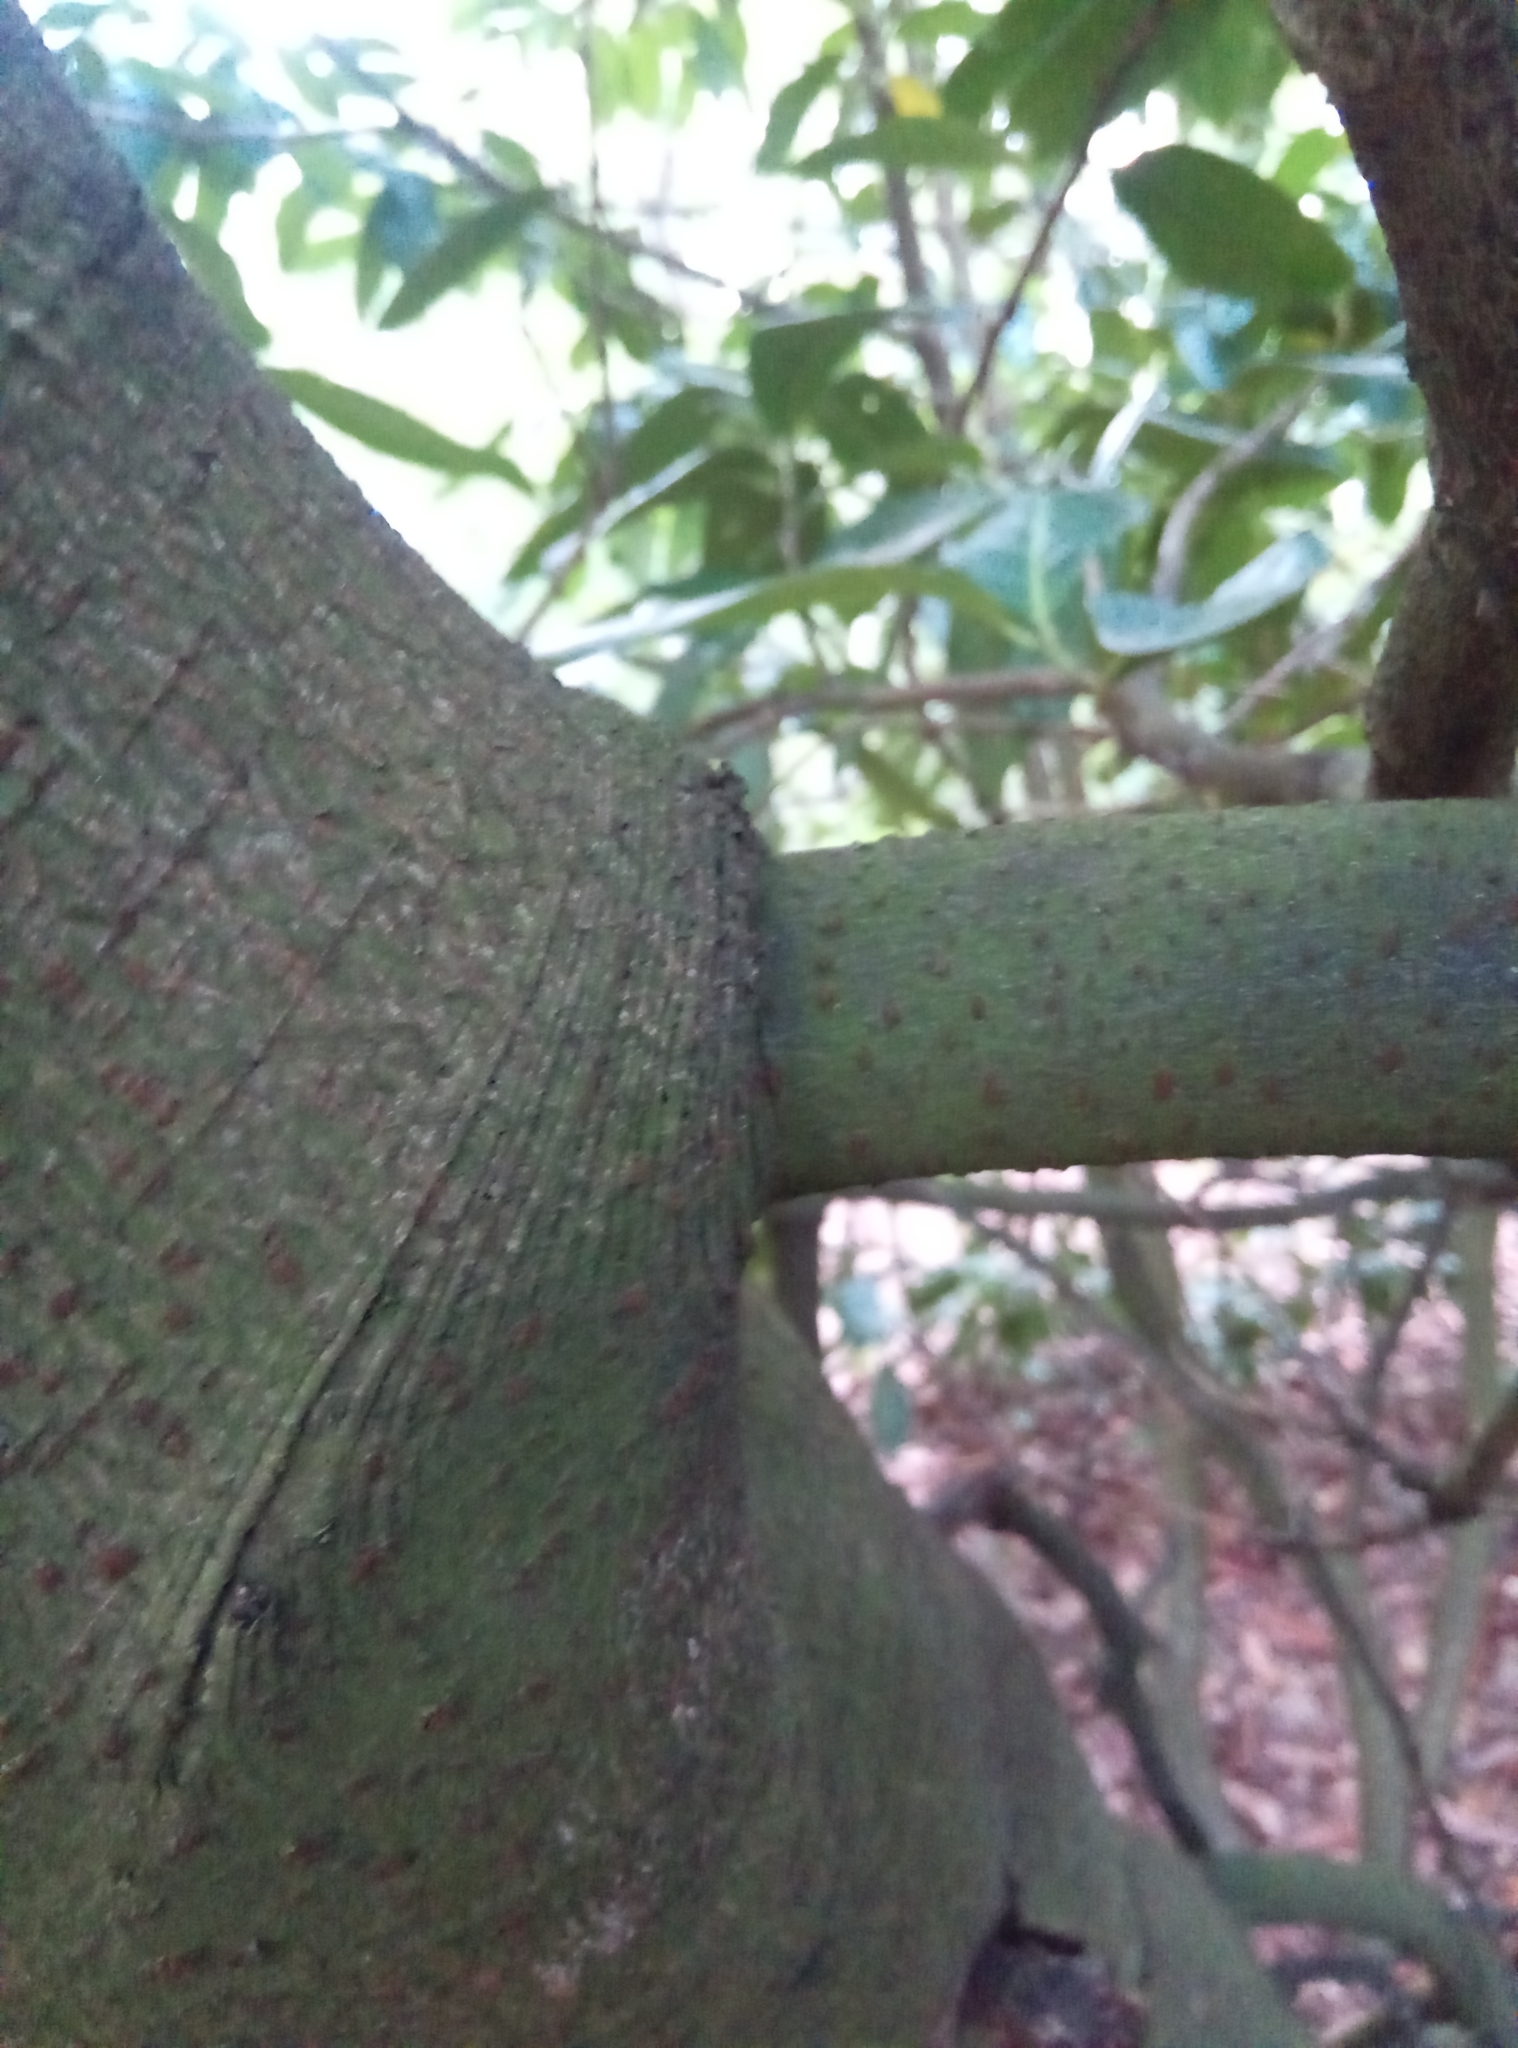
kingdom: Plantae
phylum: Tracheophyta
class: Magnoliopsida
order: Rosales
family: Rosaceae
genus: Prunus
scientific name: Prunus laurocerasus
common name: Cherry laurel
